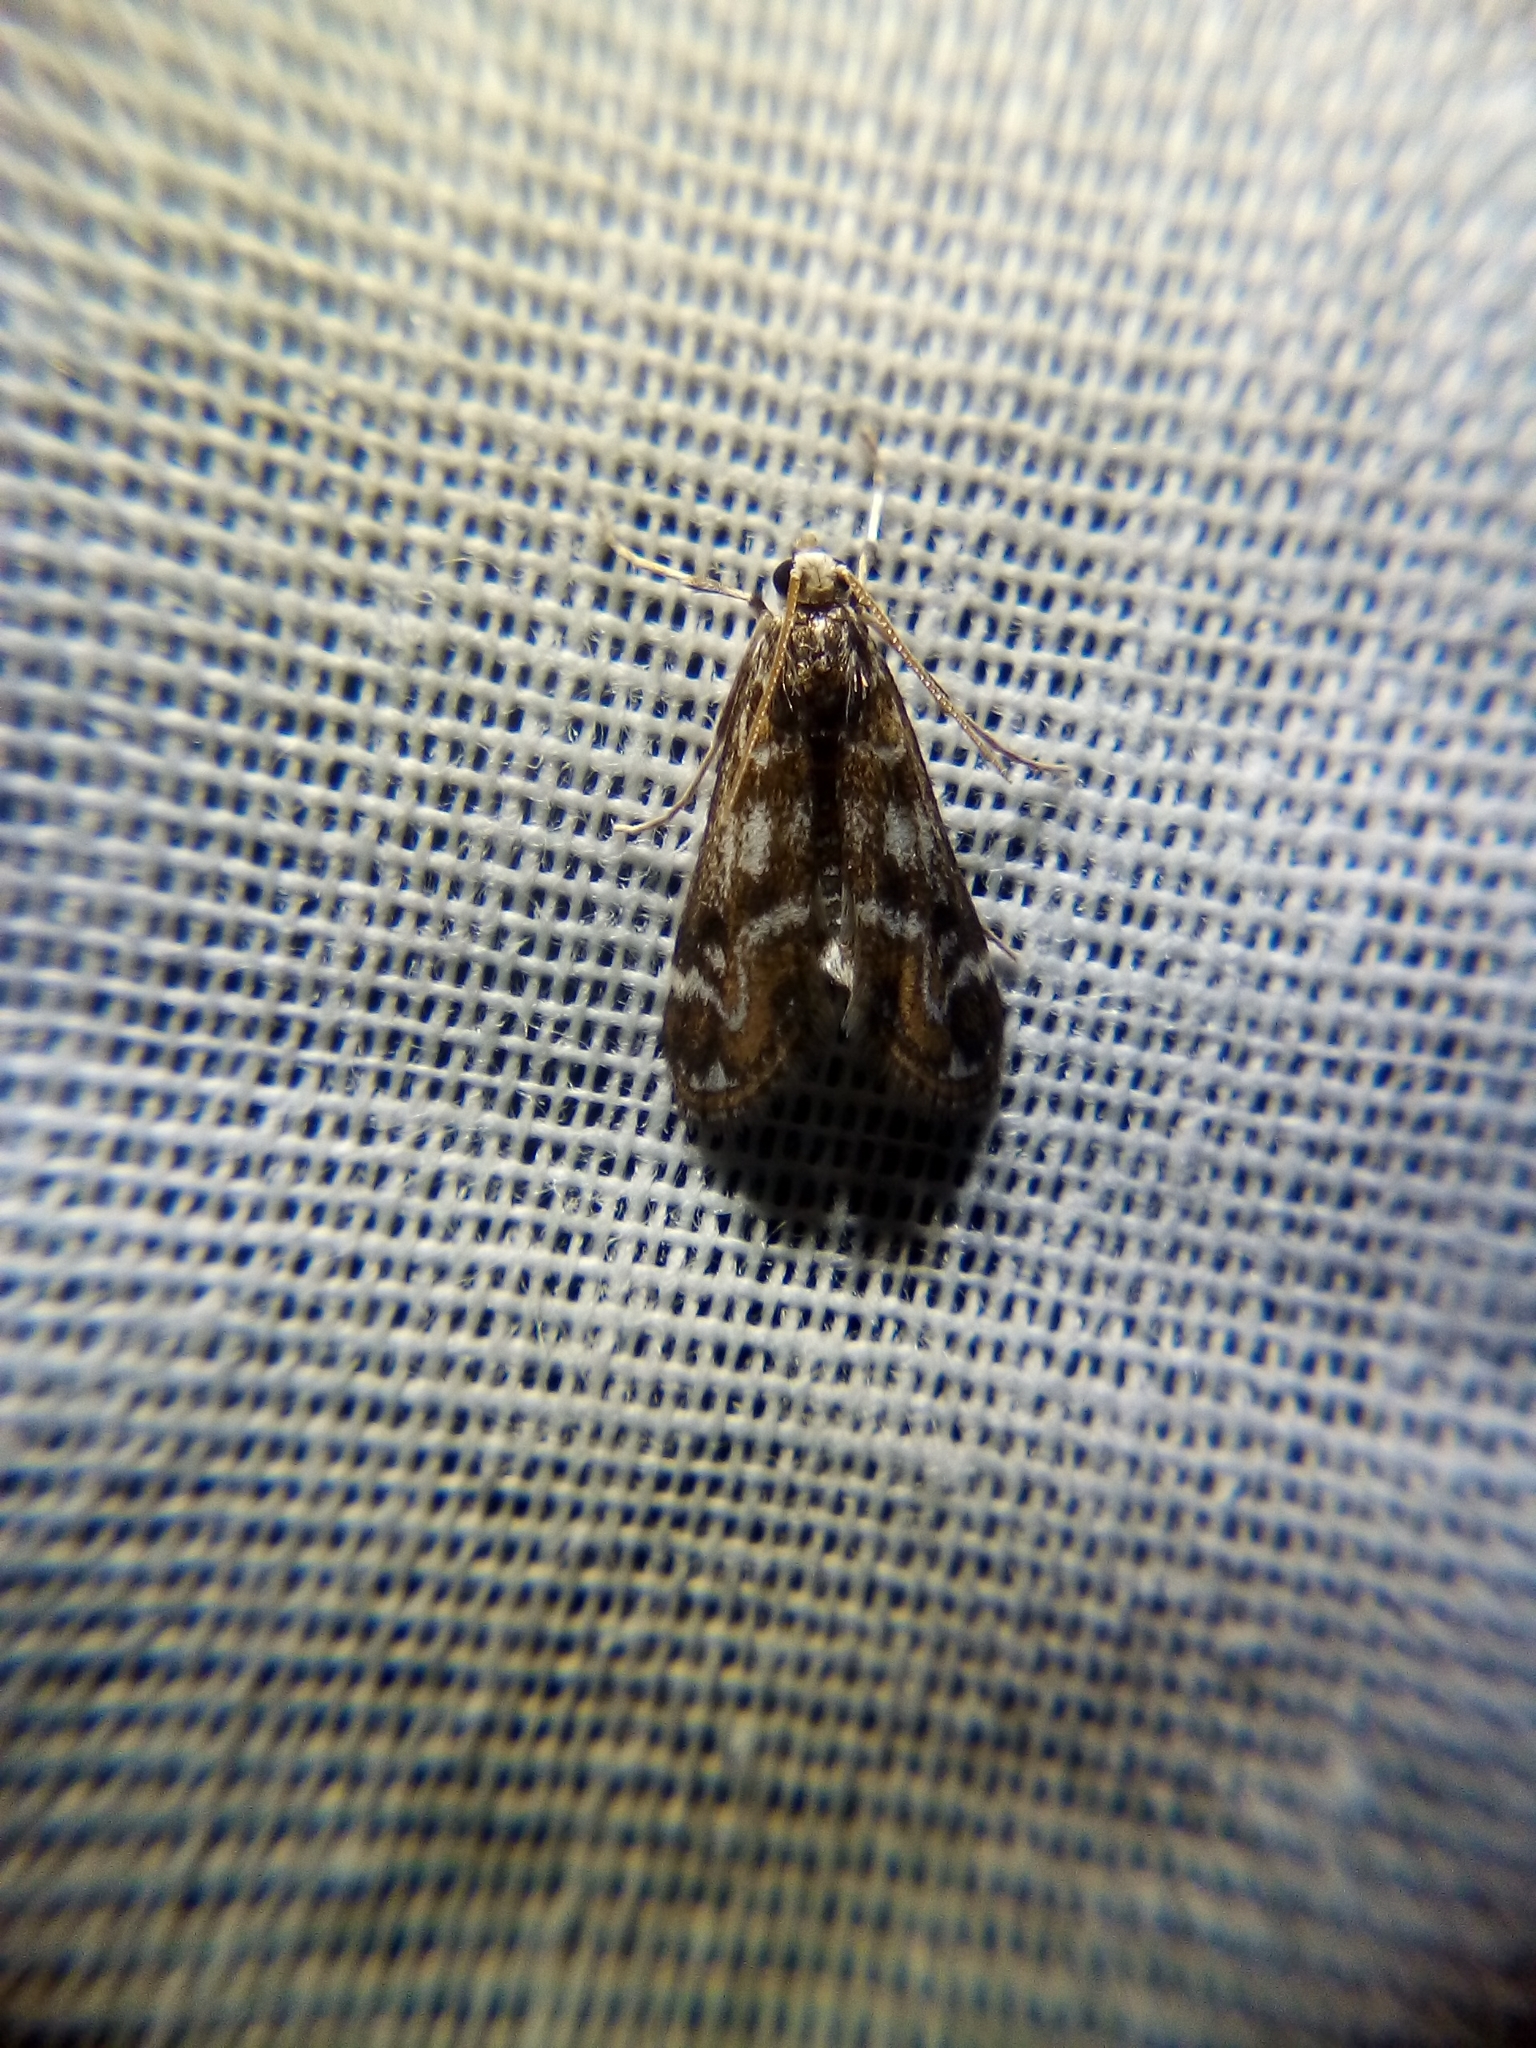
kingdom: Animalia
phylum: Arthropoda
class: Insecta
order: Lepidoptera
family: Crambidae
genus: Hygraula
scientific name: Hygraula nitens
